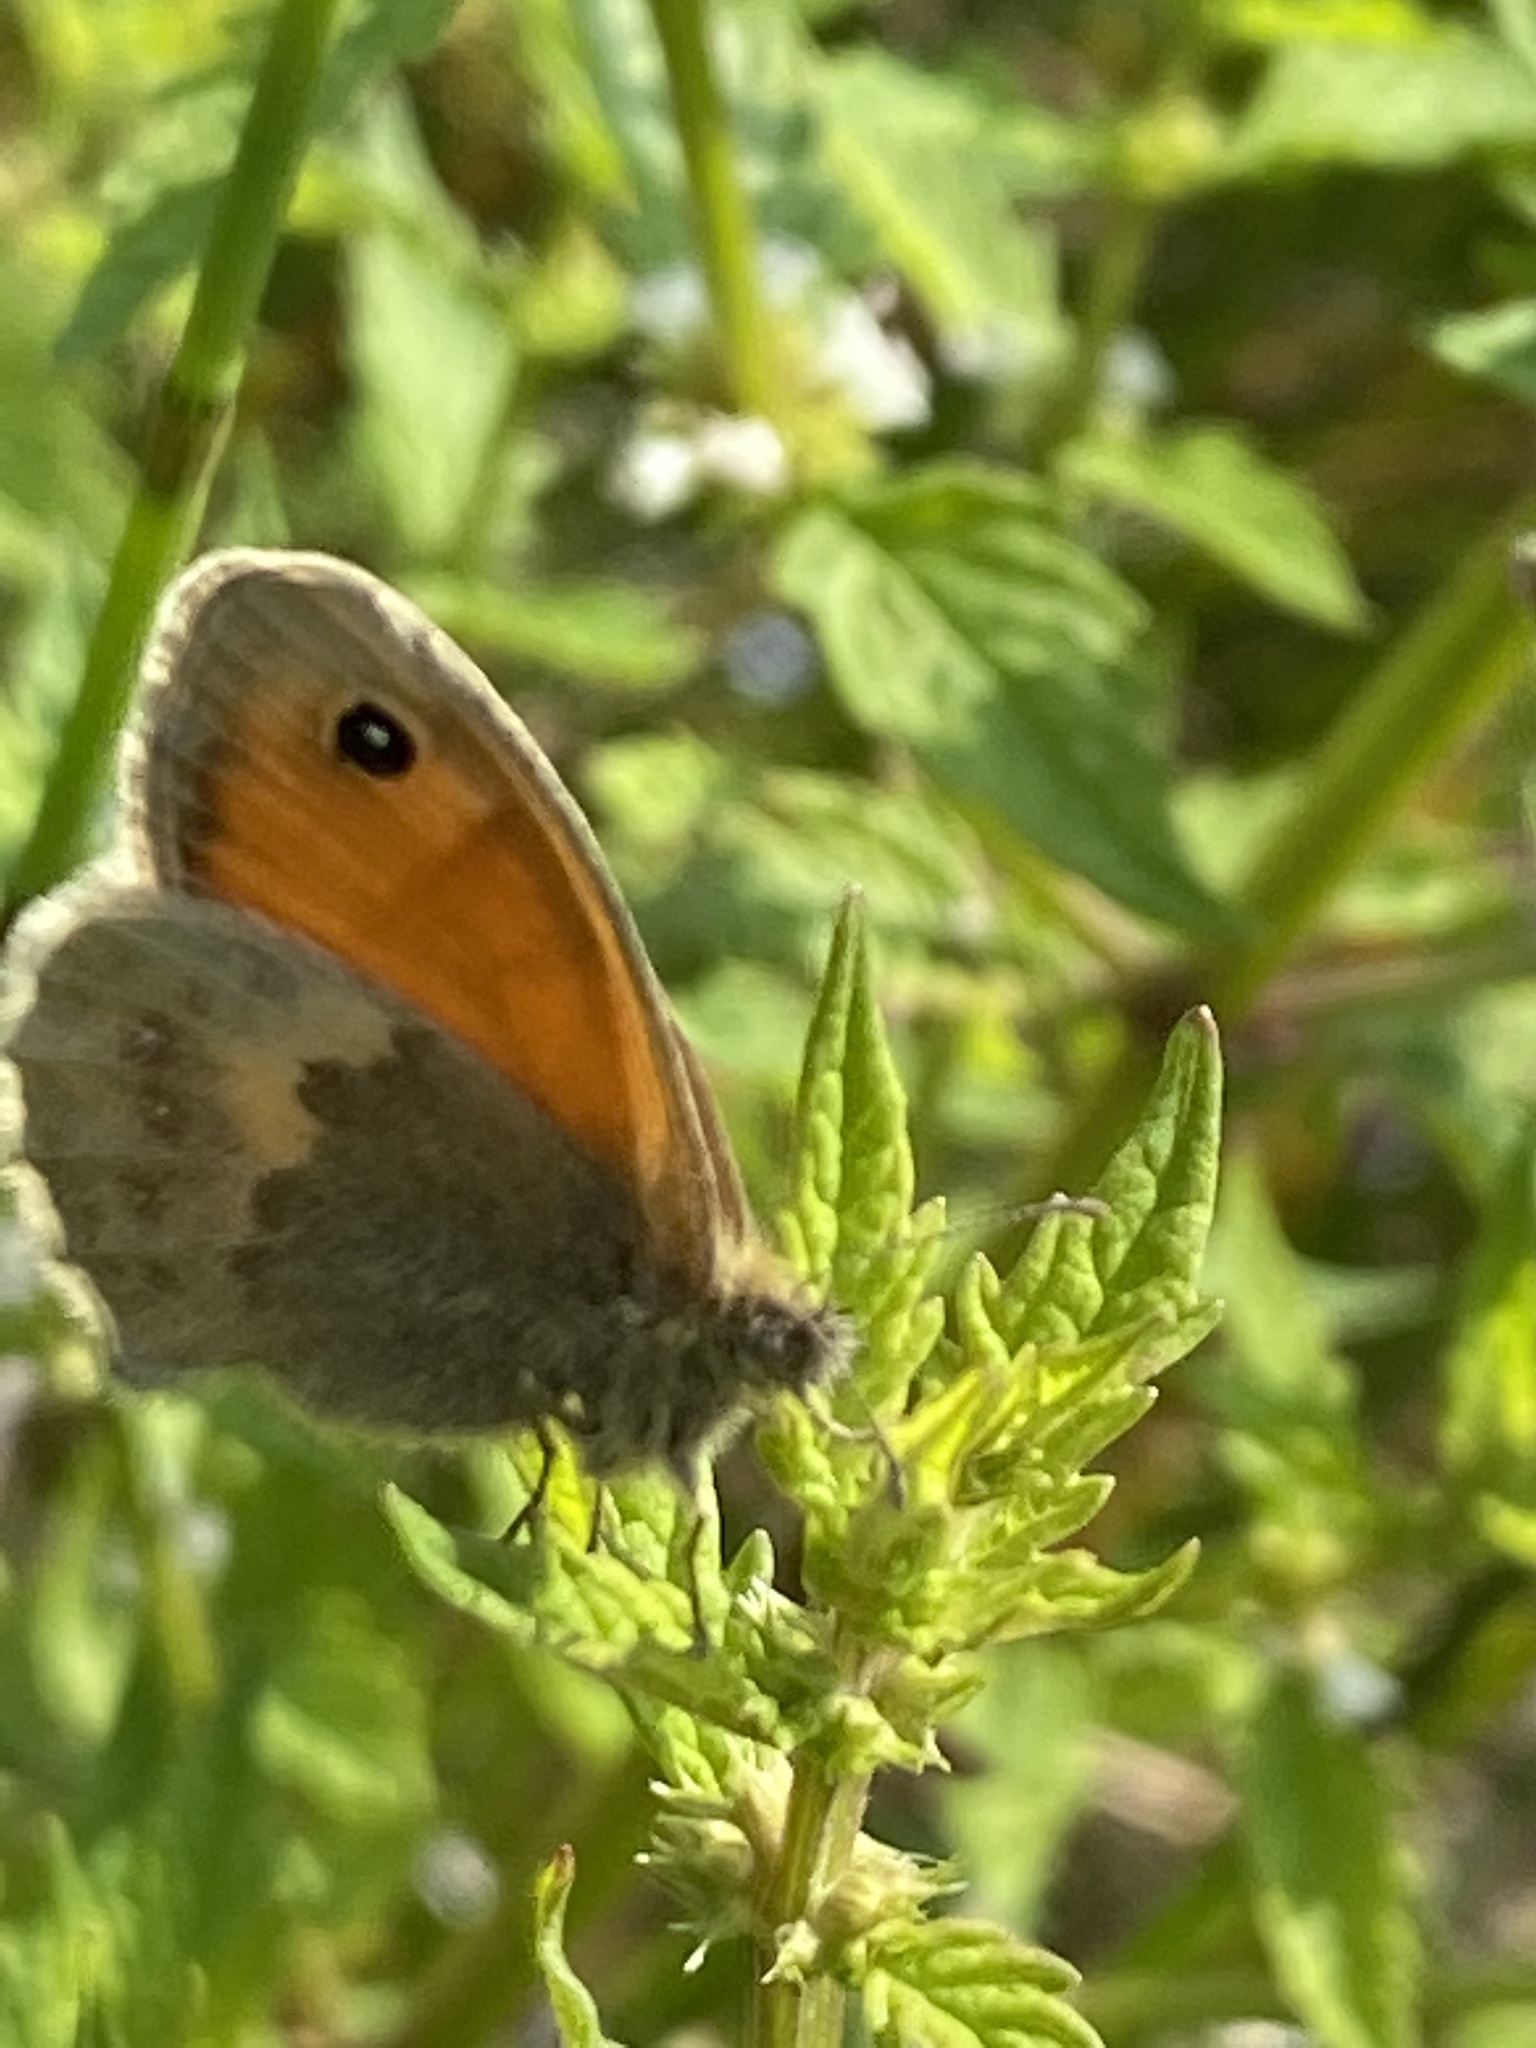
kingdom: Animalia
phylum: Arthropoda
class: Insecta
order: Lepidoptera
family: Nymphalidae
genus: Coenonympha
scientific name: Coenonympha pamphilus
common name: Small heath
